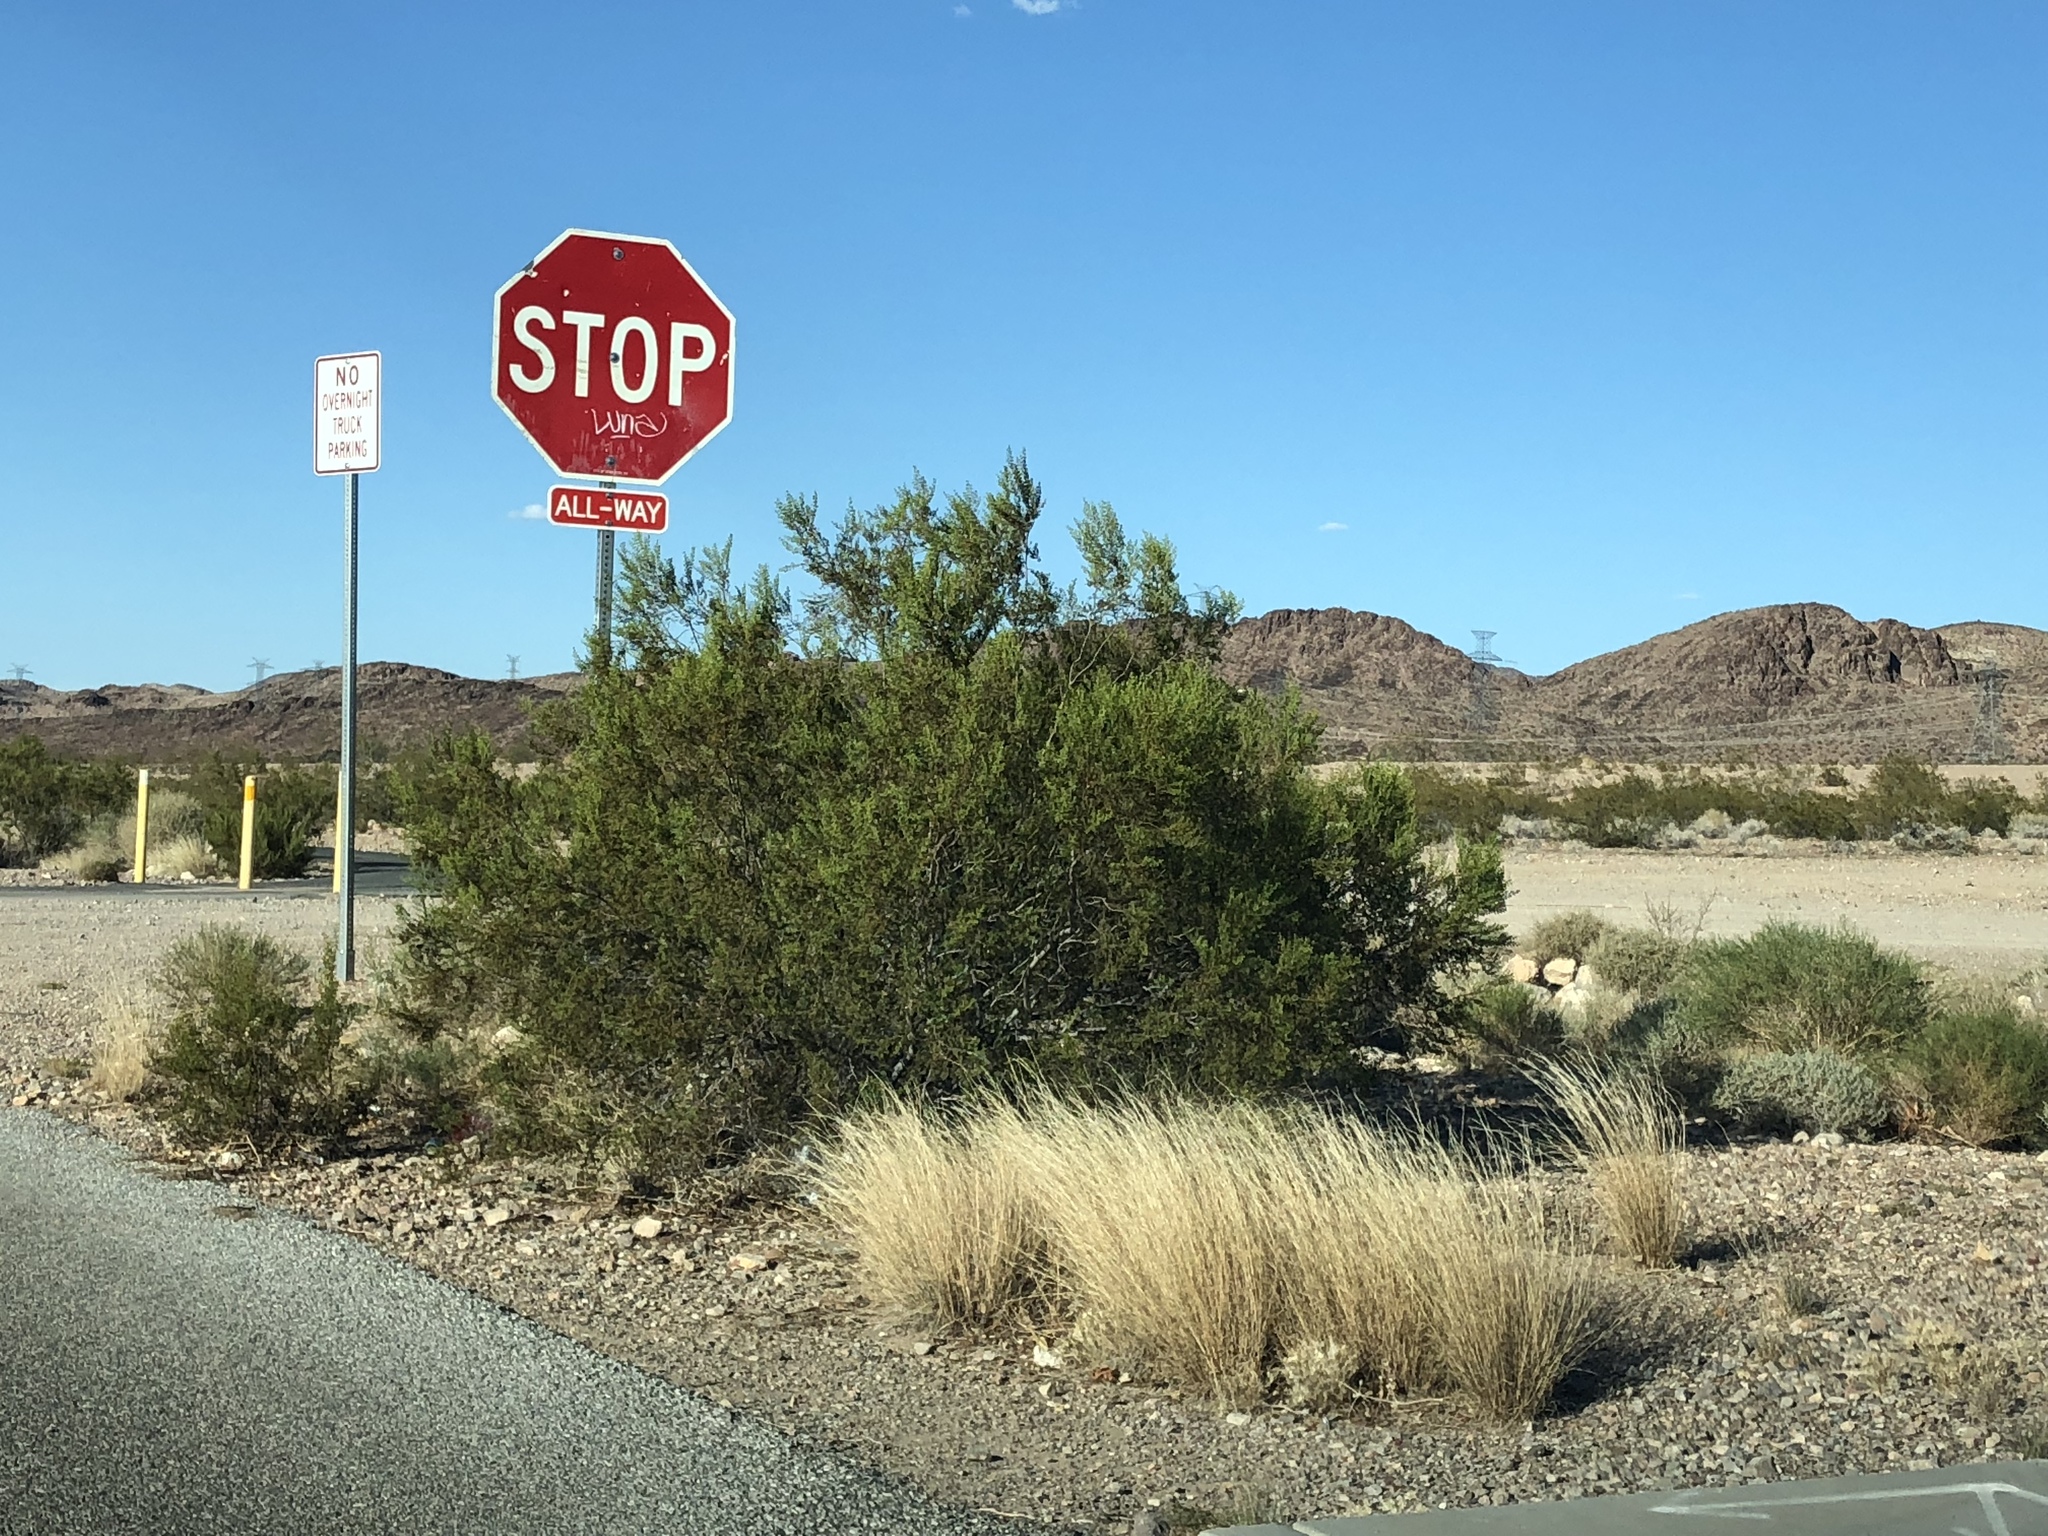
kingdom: Plantae
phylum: Tracheophyta
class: Magnoliopsida
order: Zygophyllales
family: Zygophyllaceae
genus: Larrea
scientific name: Larrea tridentata
